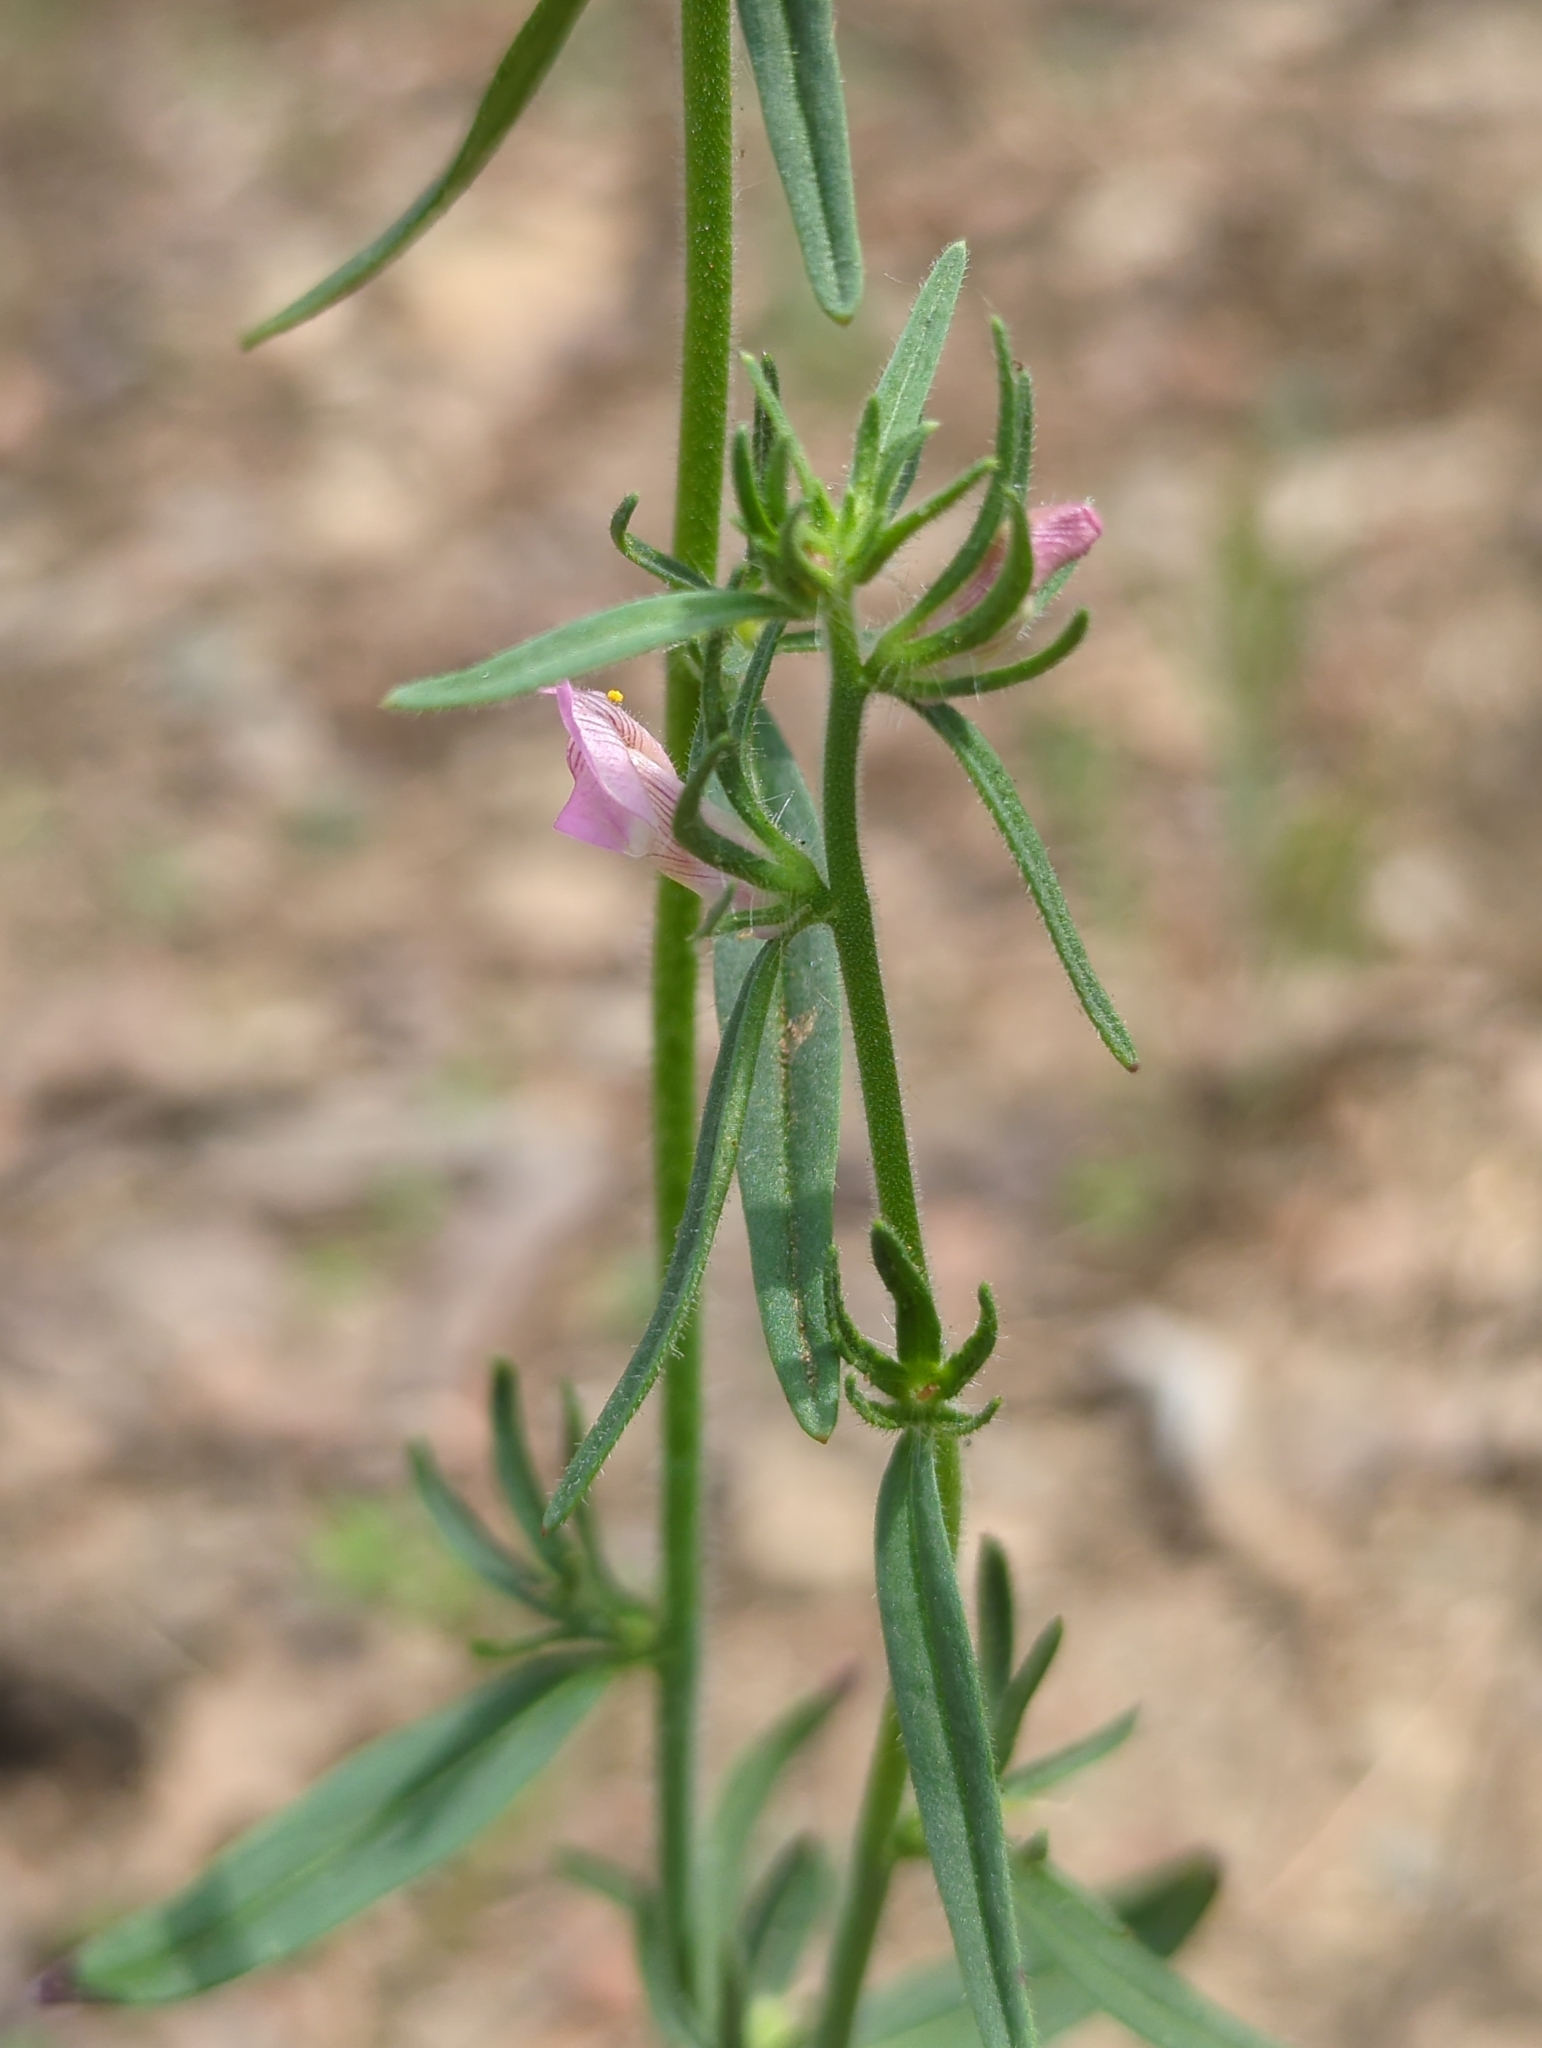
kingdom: Plantae
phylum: Tracheophyta
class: Magnoliopsida
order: Lamiales
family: Plantaginaceae
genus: Misopates
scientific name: Misopates orontium
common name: Weasel's-snout
